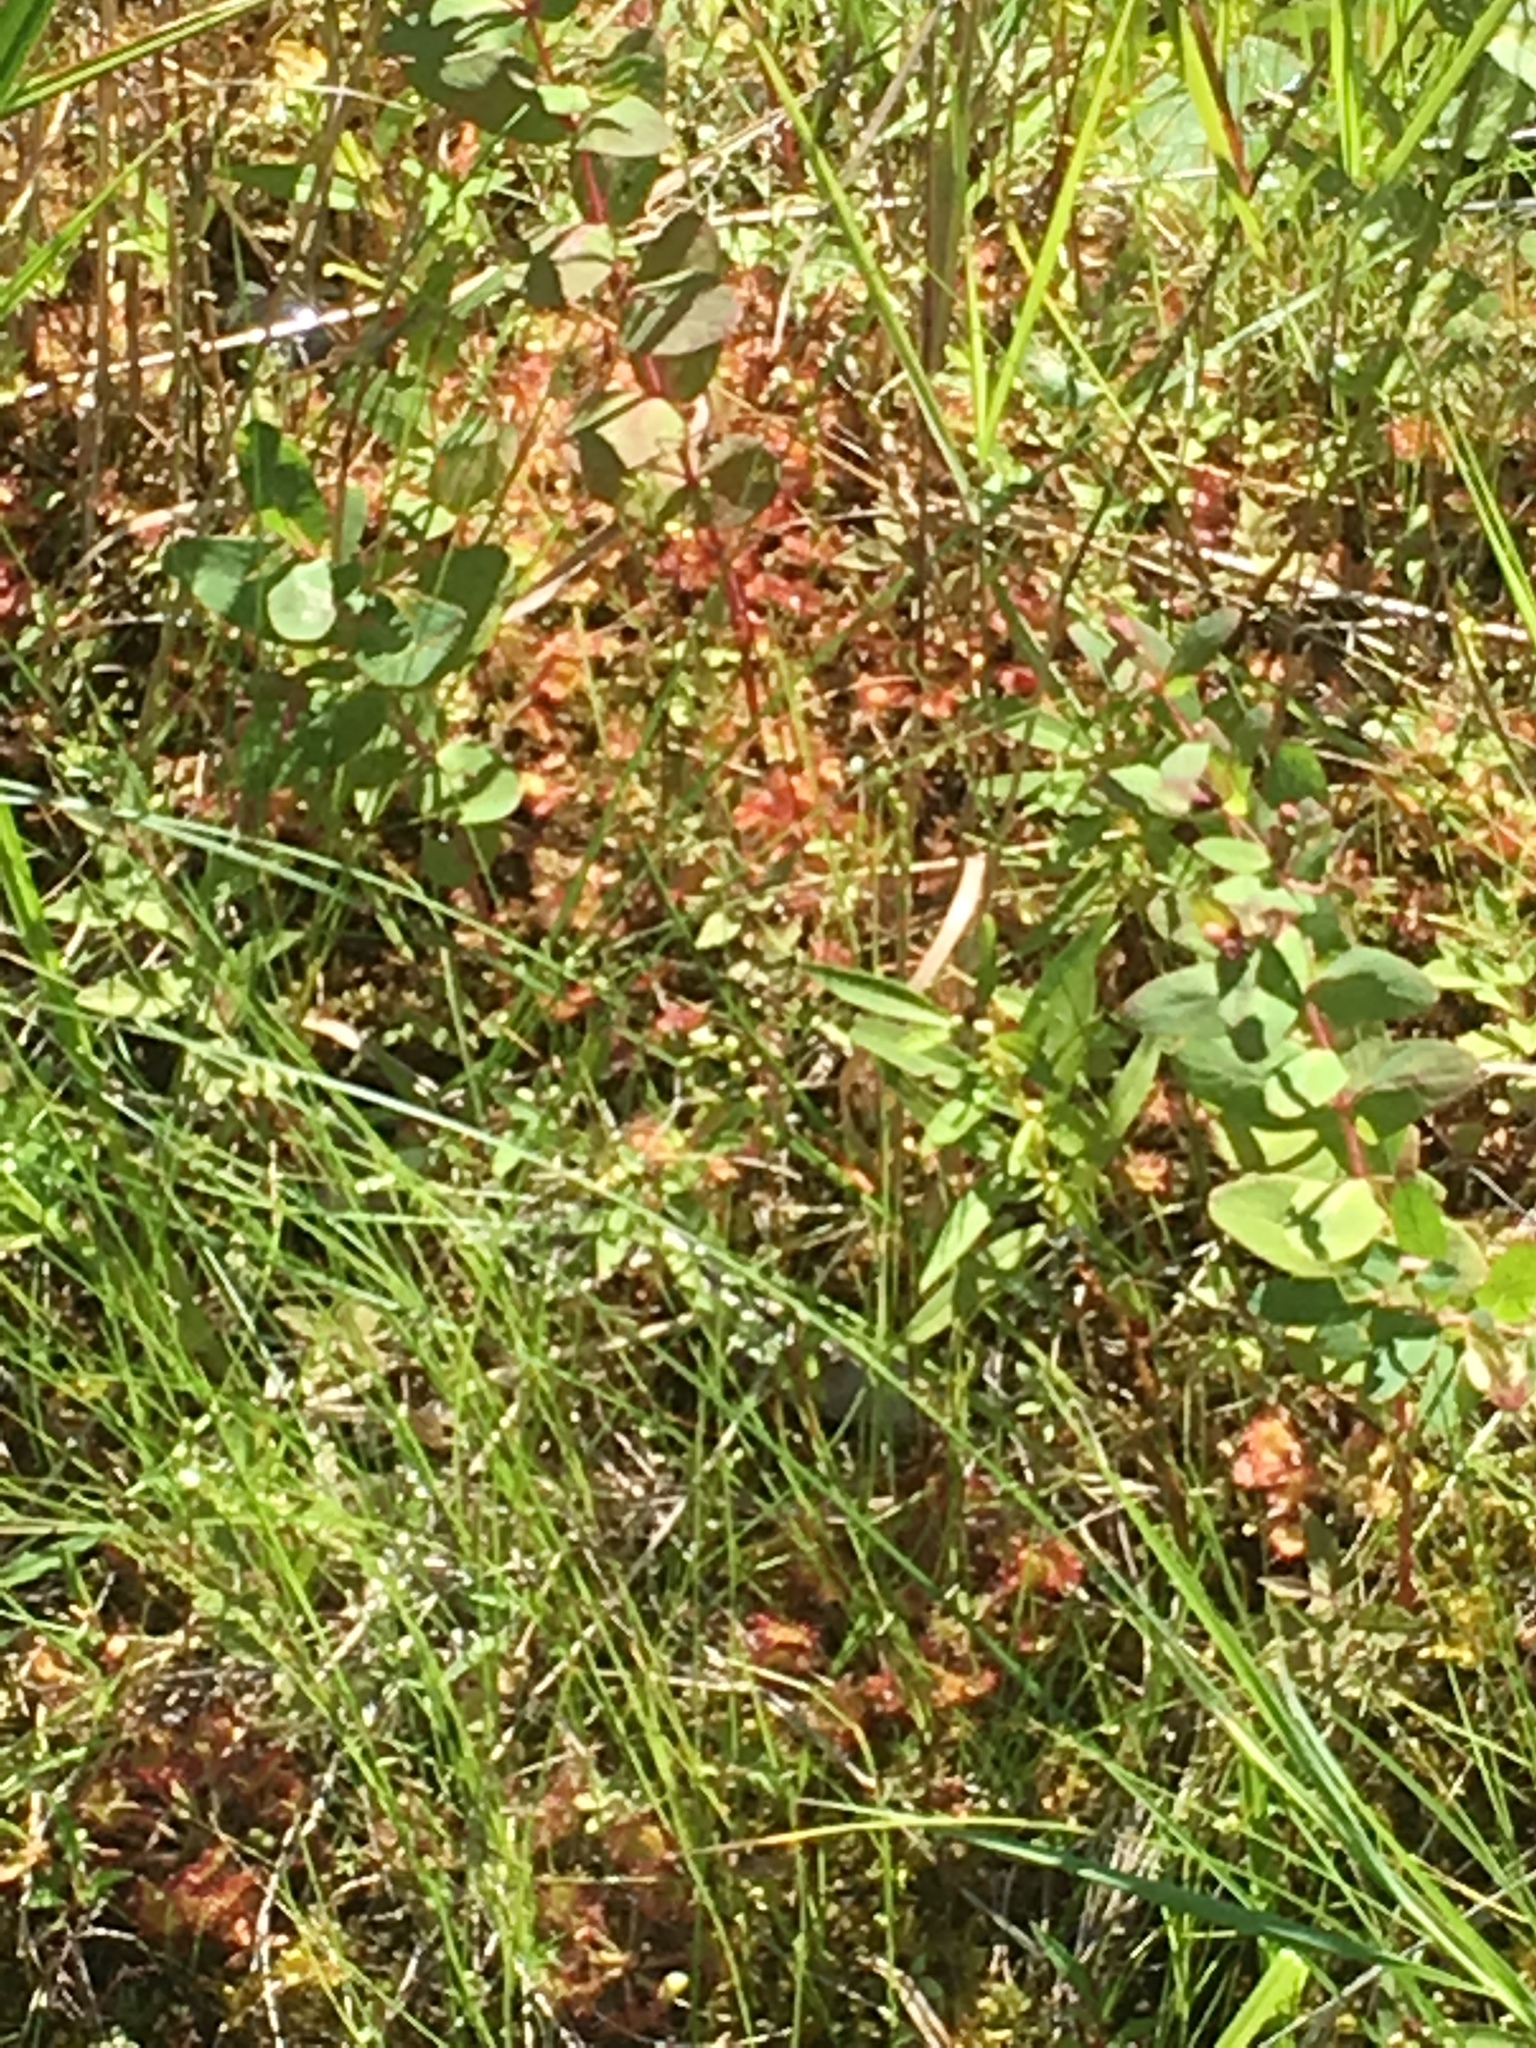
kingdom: Plantae
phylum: Tracheophyta
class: Magnoliopsida
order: Caryophyllales
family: Droseraceae
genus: Drosera
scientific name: Drosera rotundifolia
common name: Round-leaved sundew
